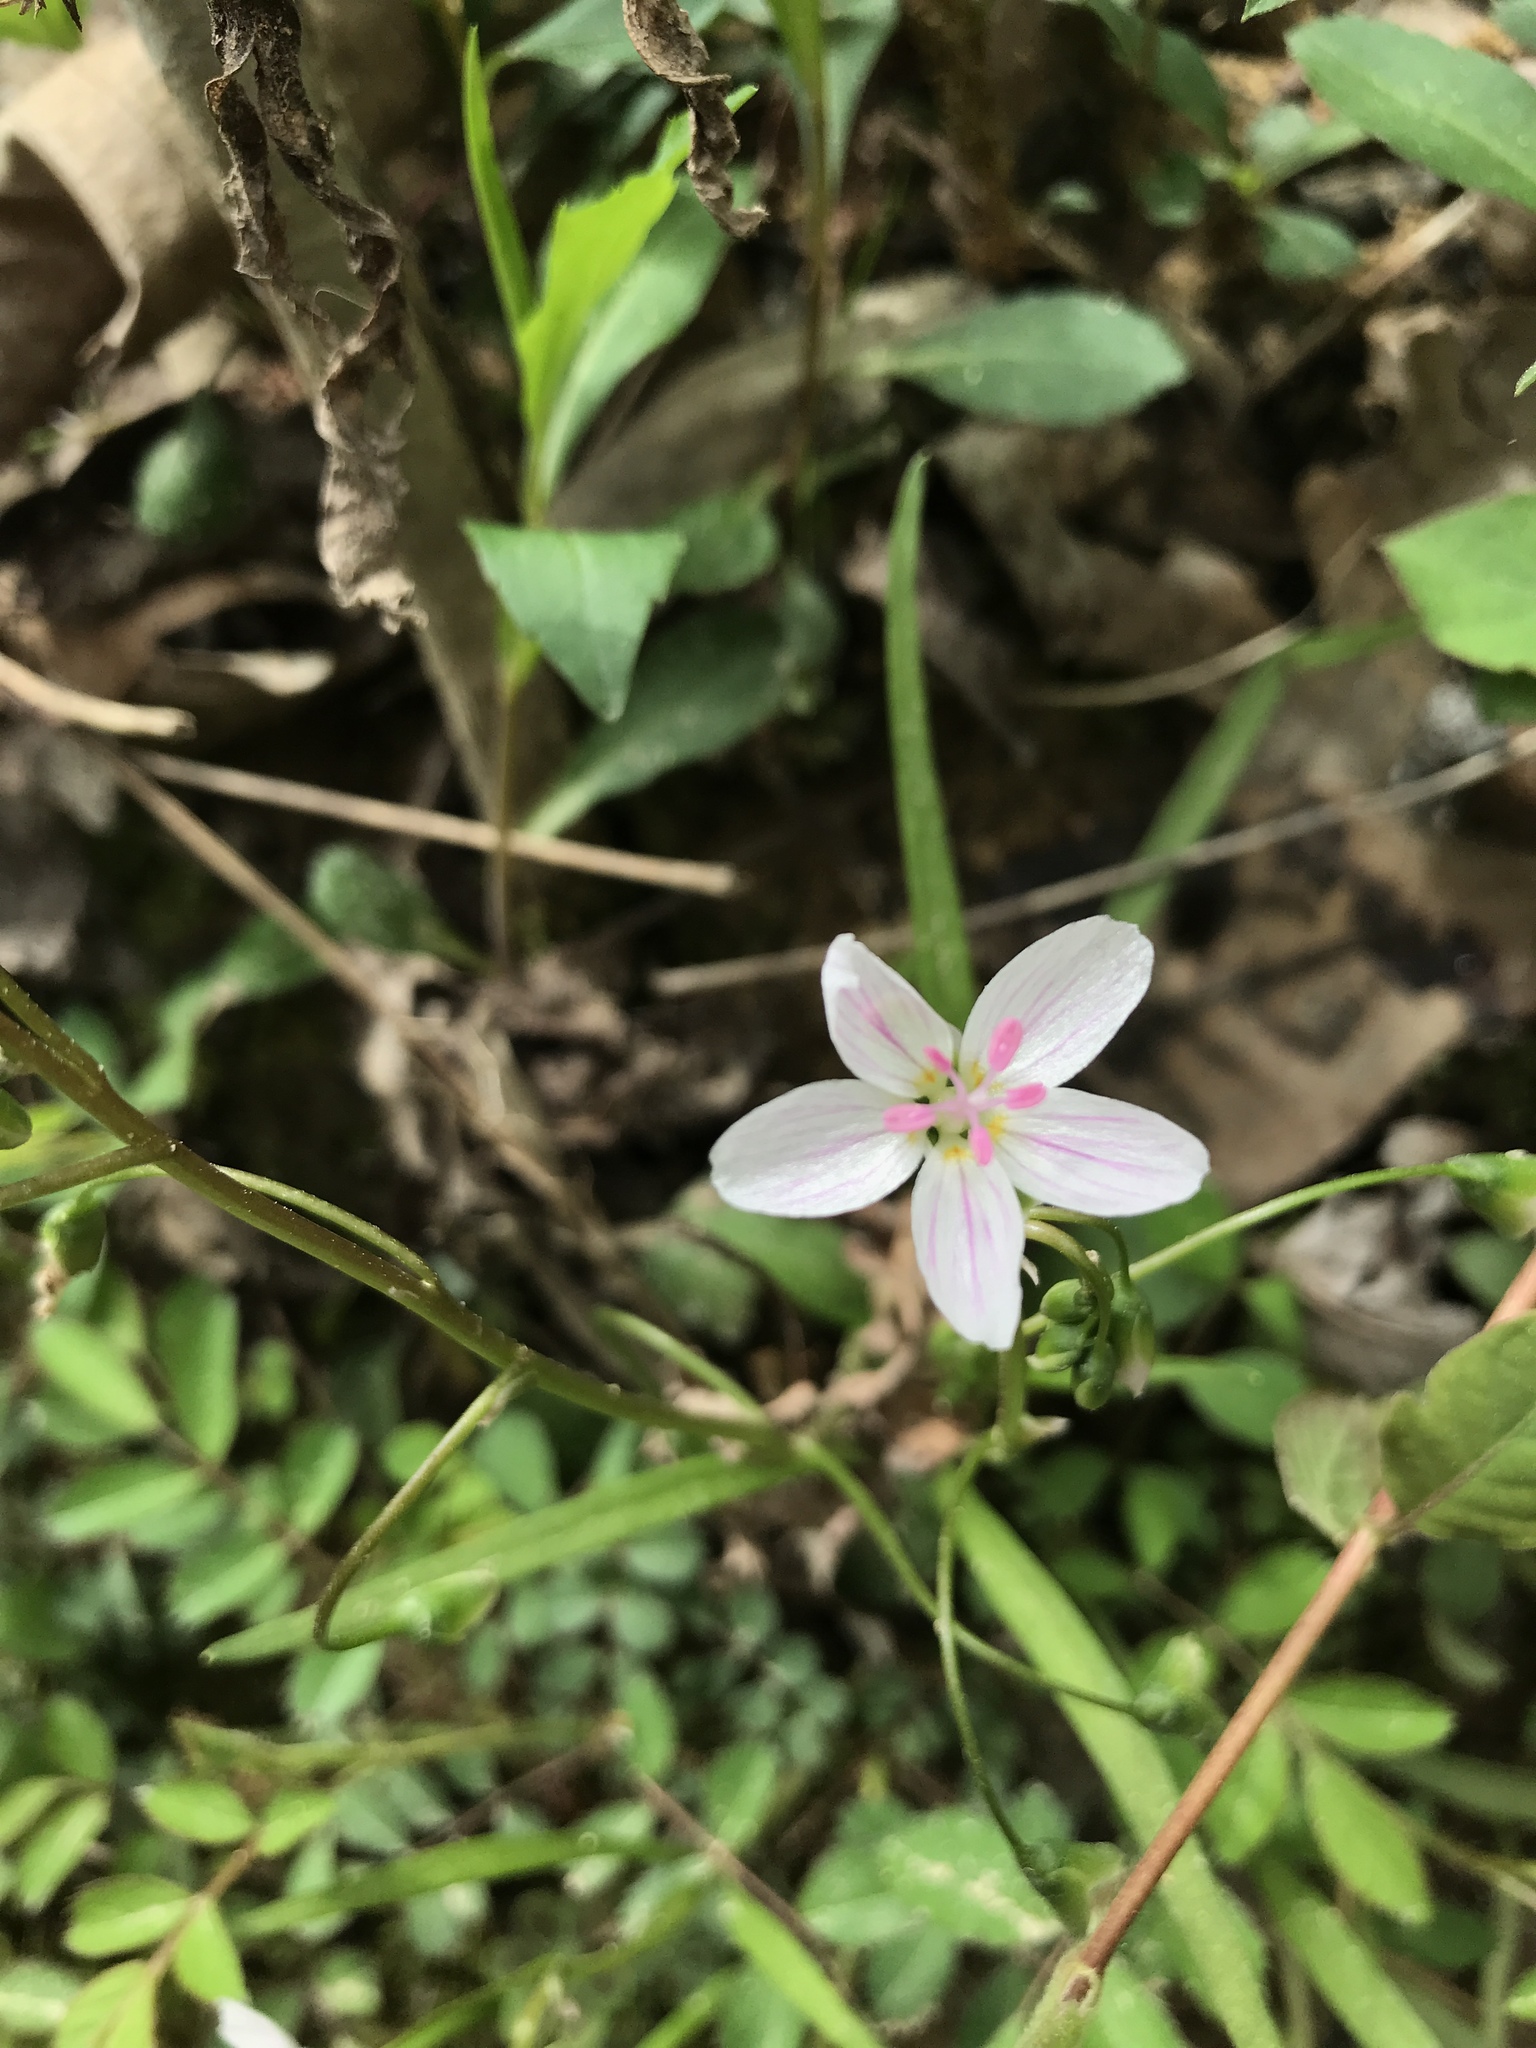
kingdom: Plantae
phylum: Tracheophyta
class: Magnoliopsida
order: Caryophyllales
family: Montiaceae
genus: Claytonia
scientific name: Claytonia virginica
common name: Virginia springbeauty
